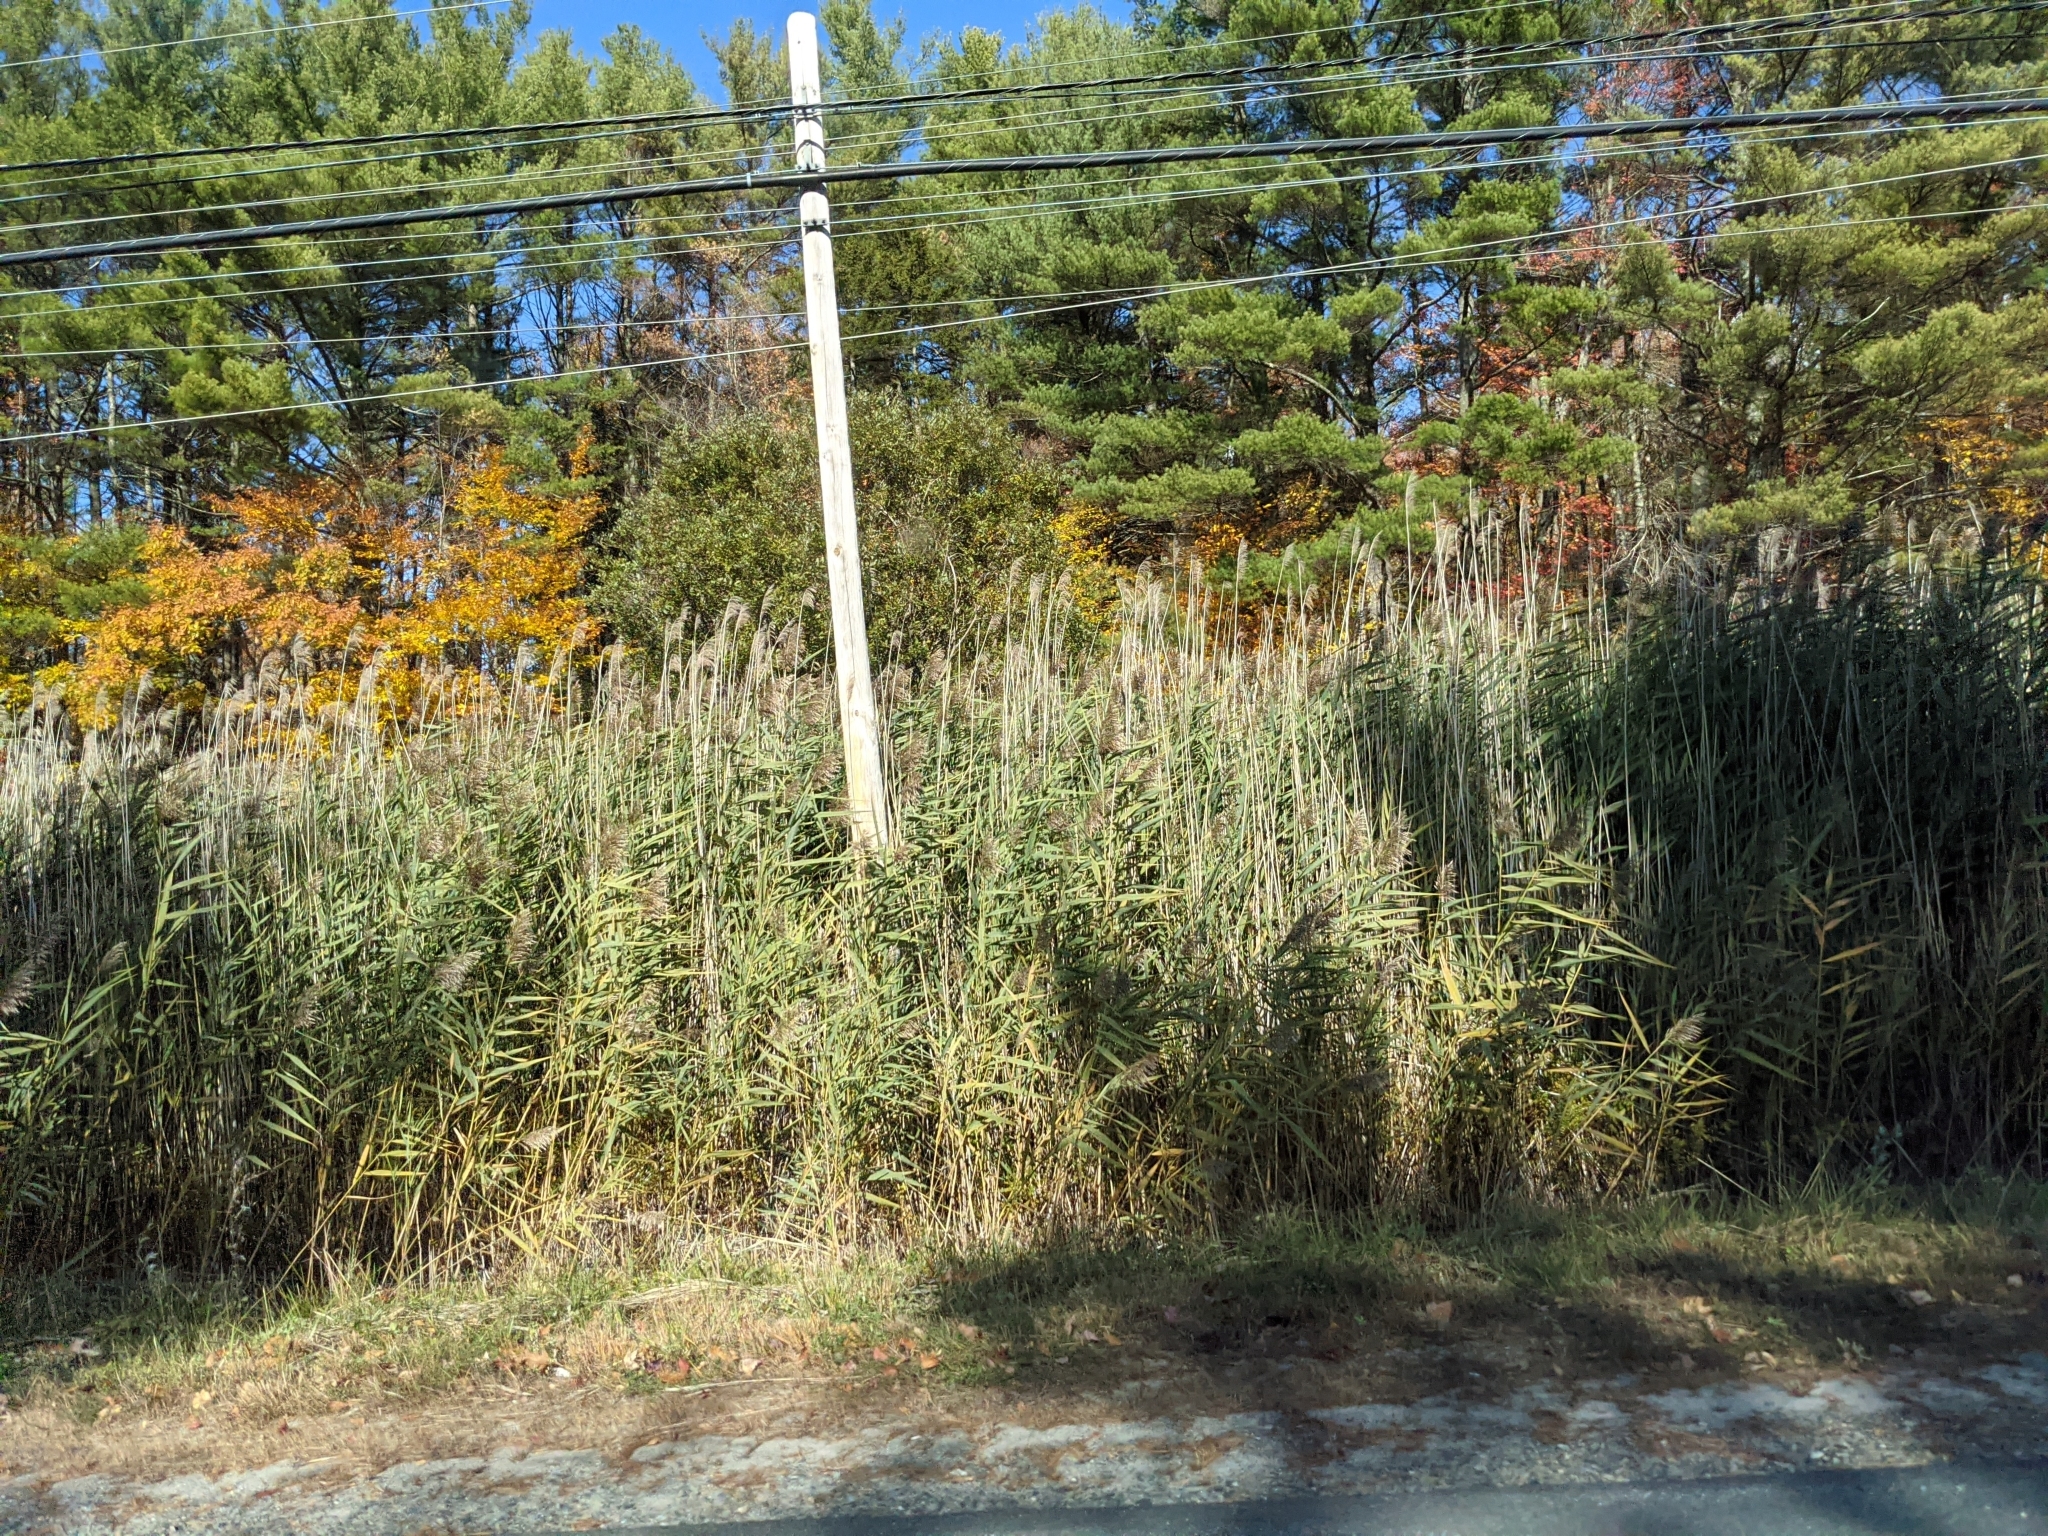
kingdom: Plantae
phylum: Tracheophyta
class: Liliopsida
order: Poales
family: Poaceae
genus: Phragmites
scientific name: Phragmites australis
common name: Common reed
